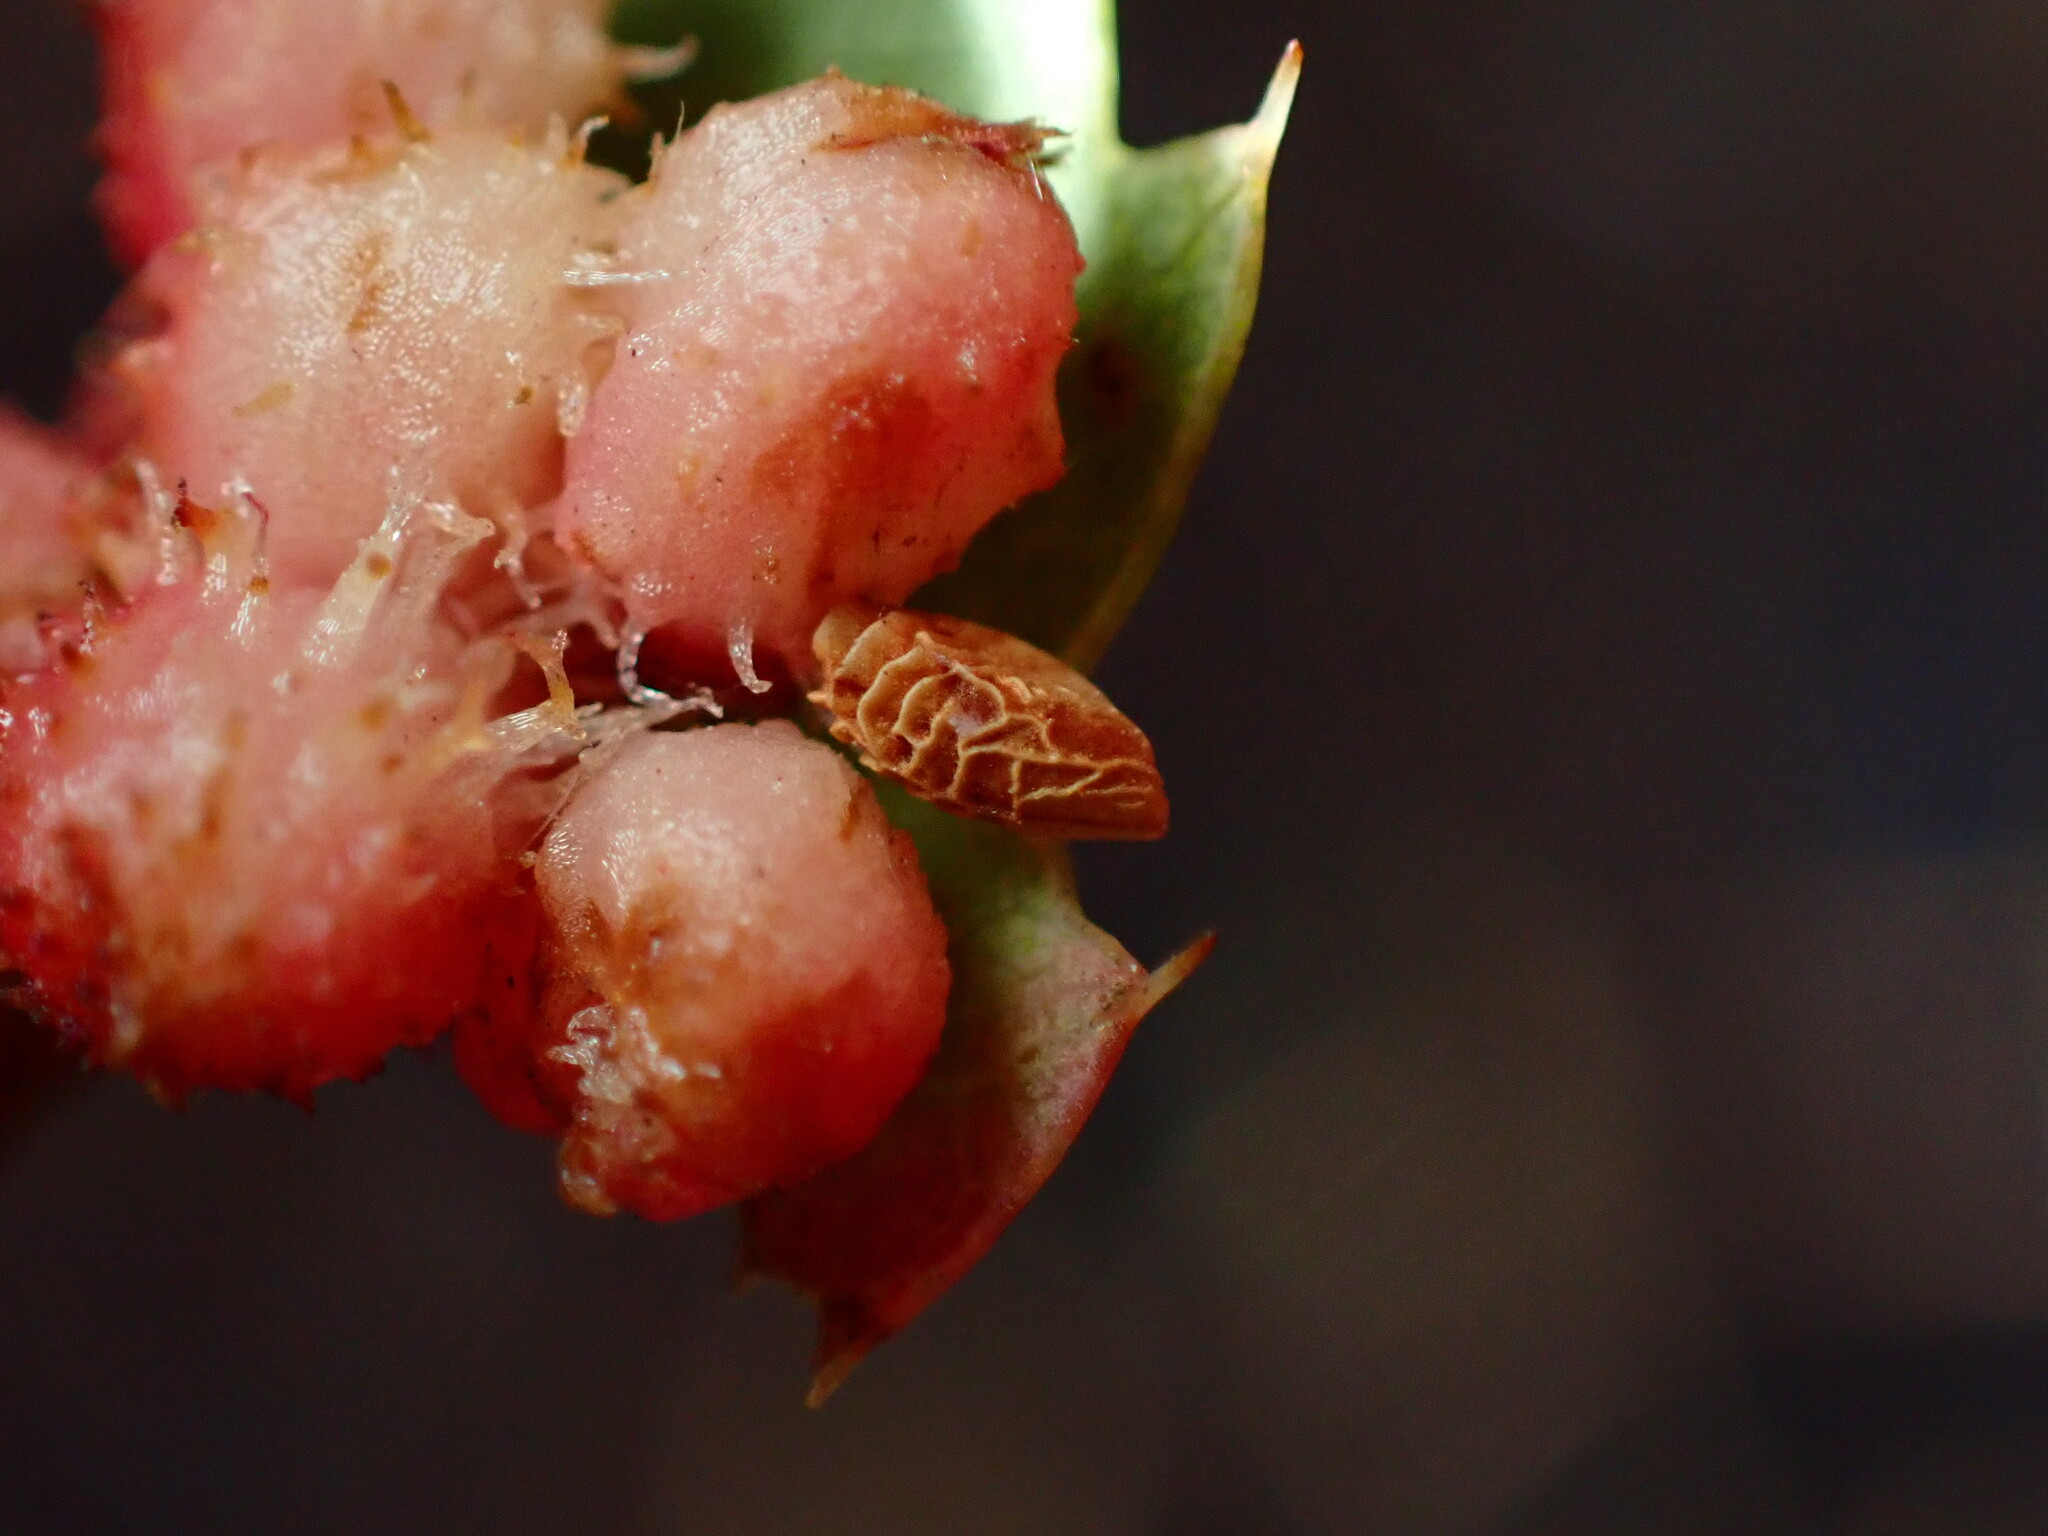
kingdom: Animalia
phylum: Arthropoda
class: Insecta
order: Hymenoptera
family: Cynipidae
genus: Andricus
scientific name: Andricus
